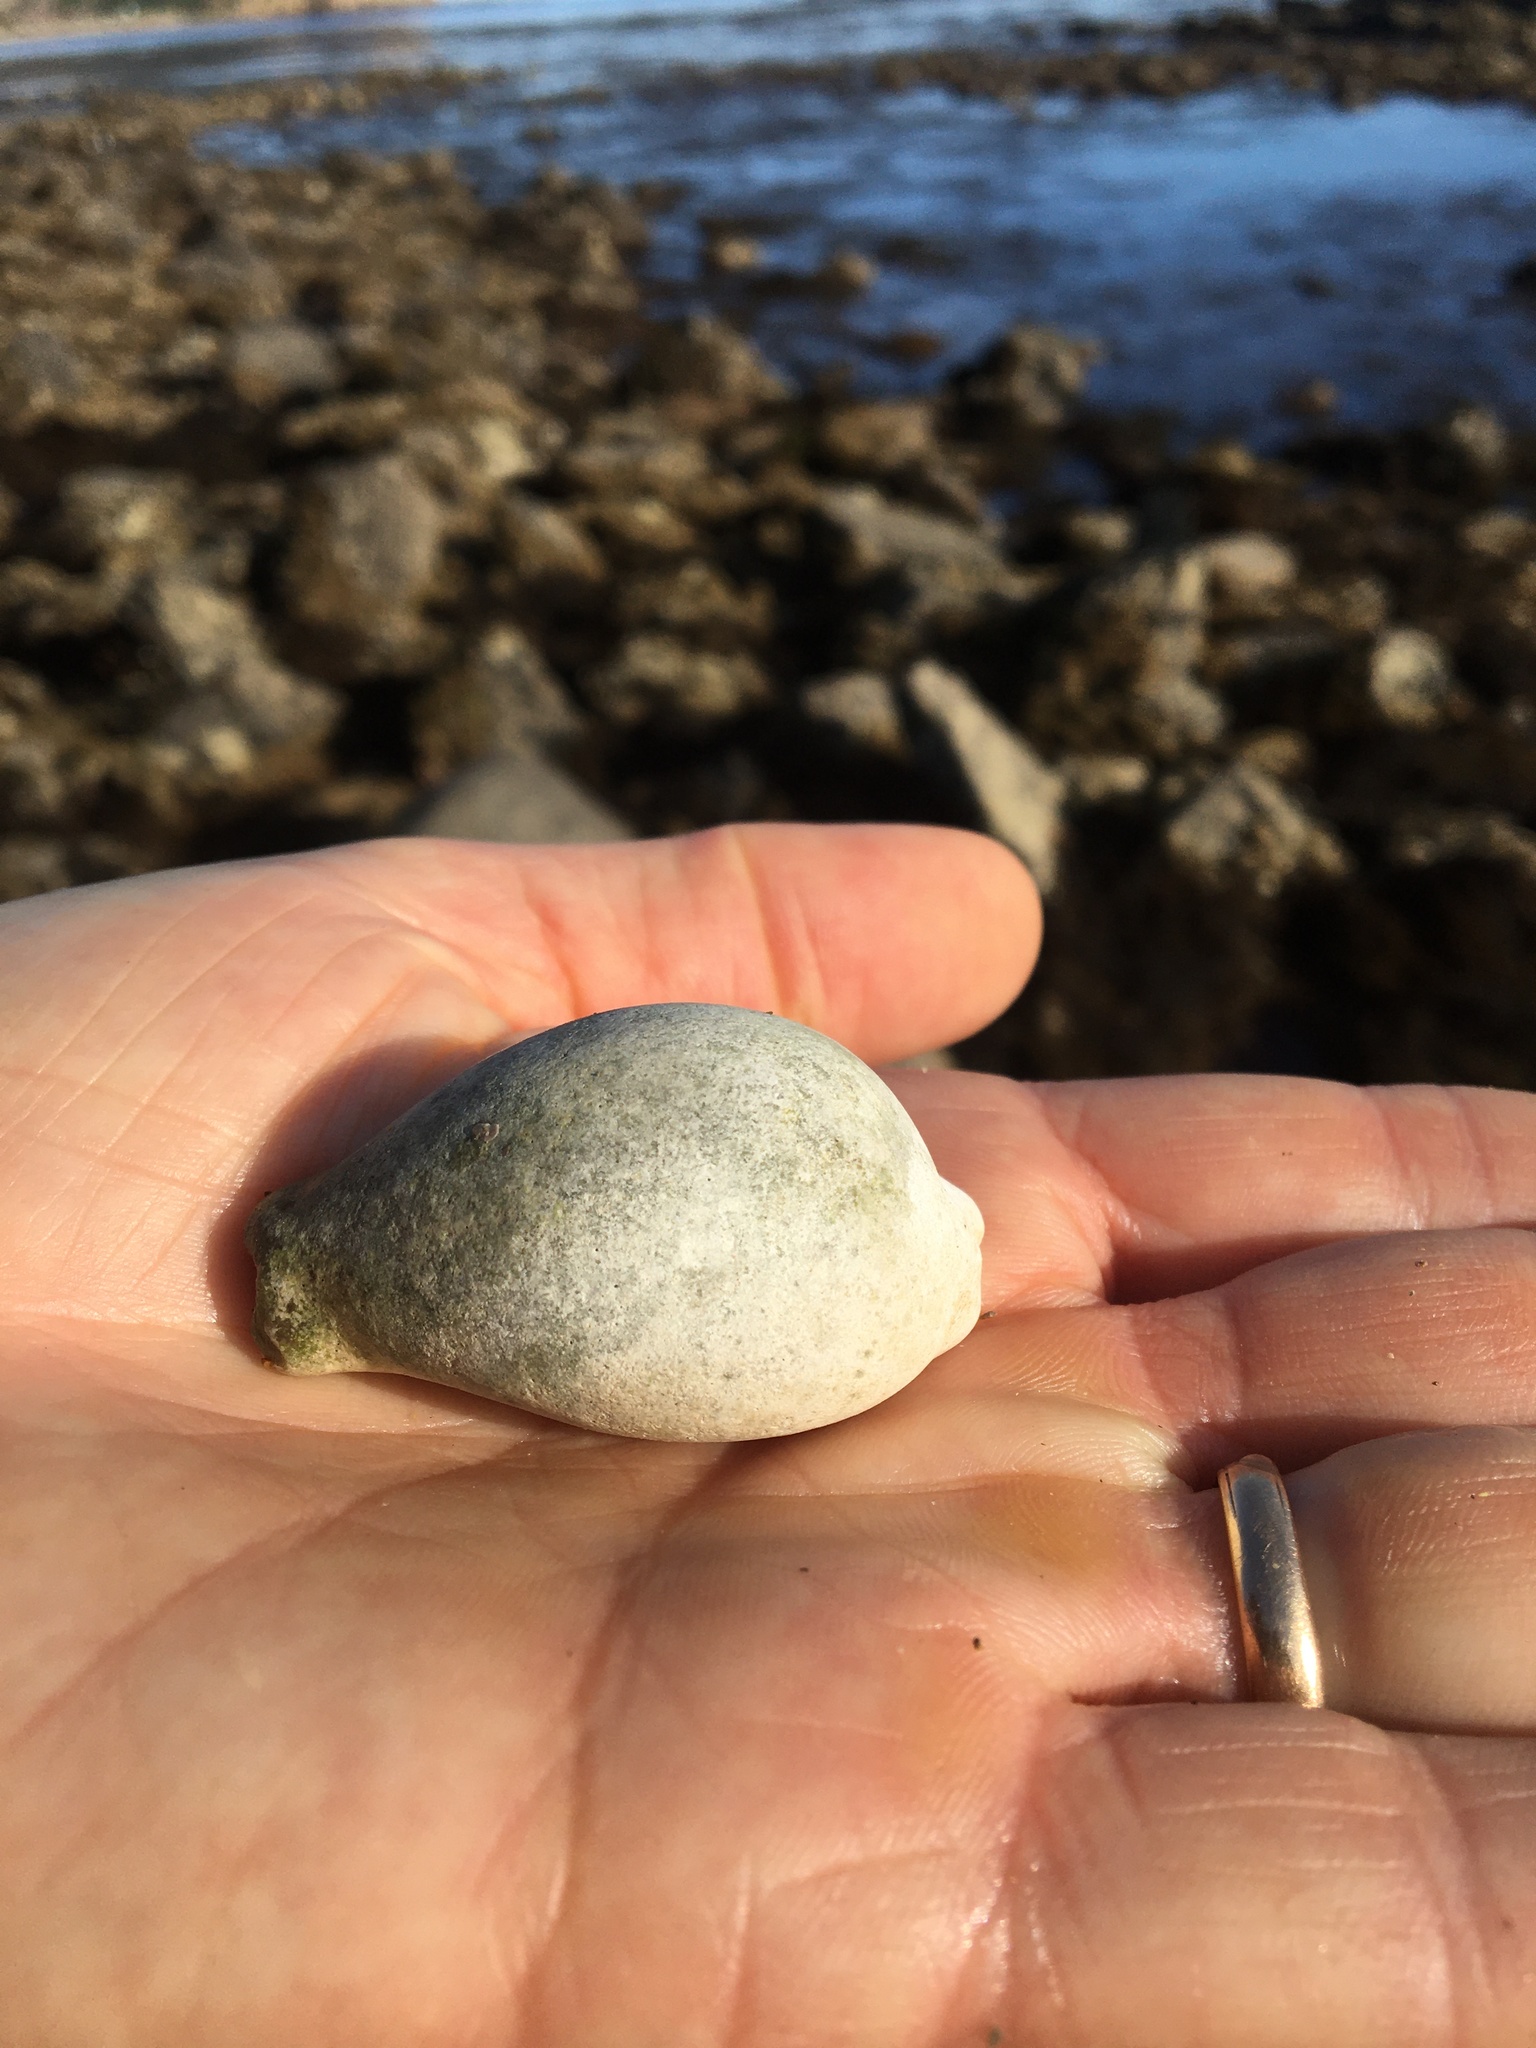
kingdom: Animalia
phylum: Mollusca
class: Gastropoda
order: Littorinimorpha
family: Cypraeidae
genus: Neobernaya
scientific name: Neobernaya spadicea
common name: Chestnut cowrie
